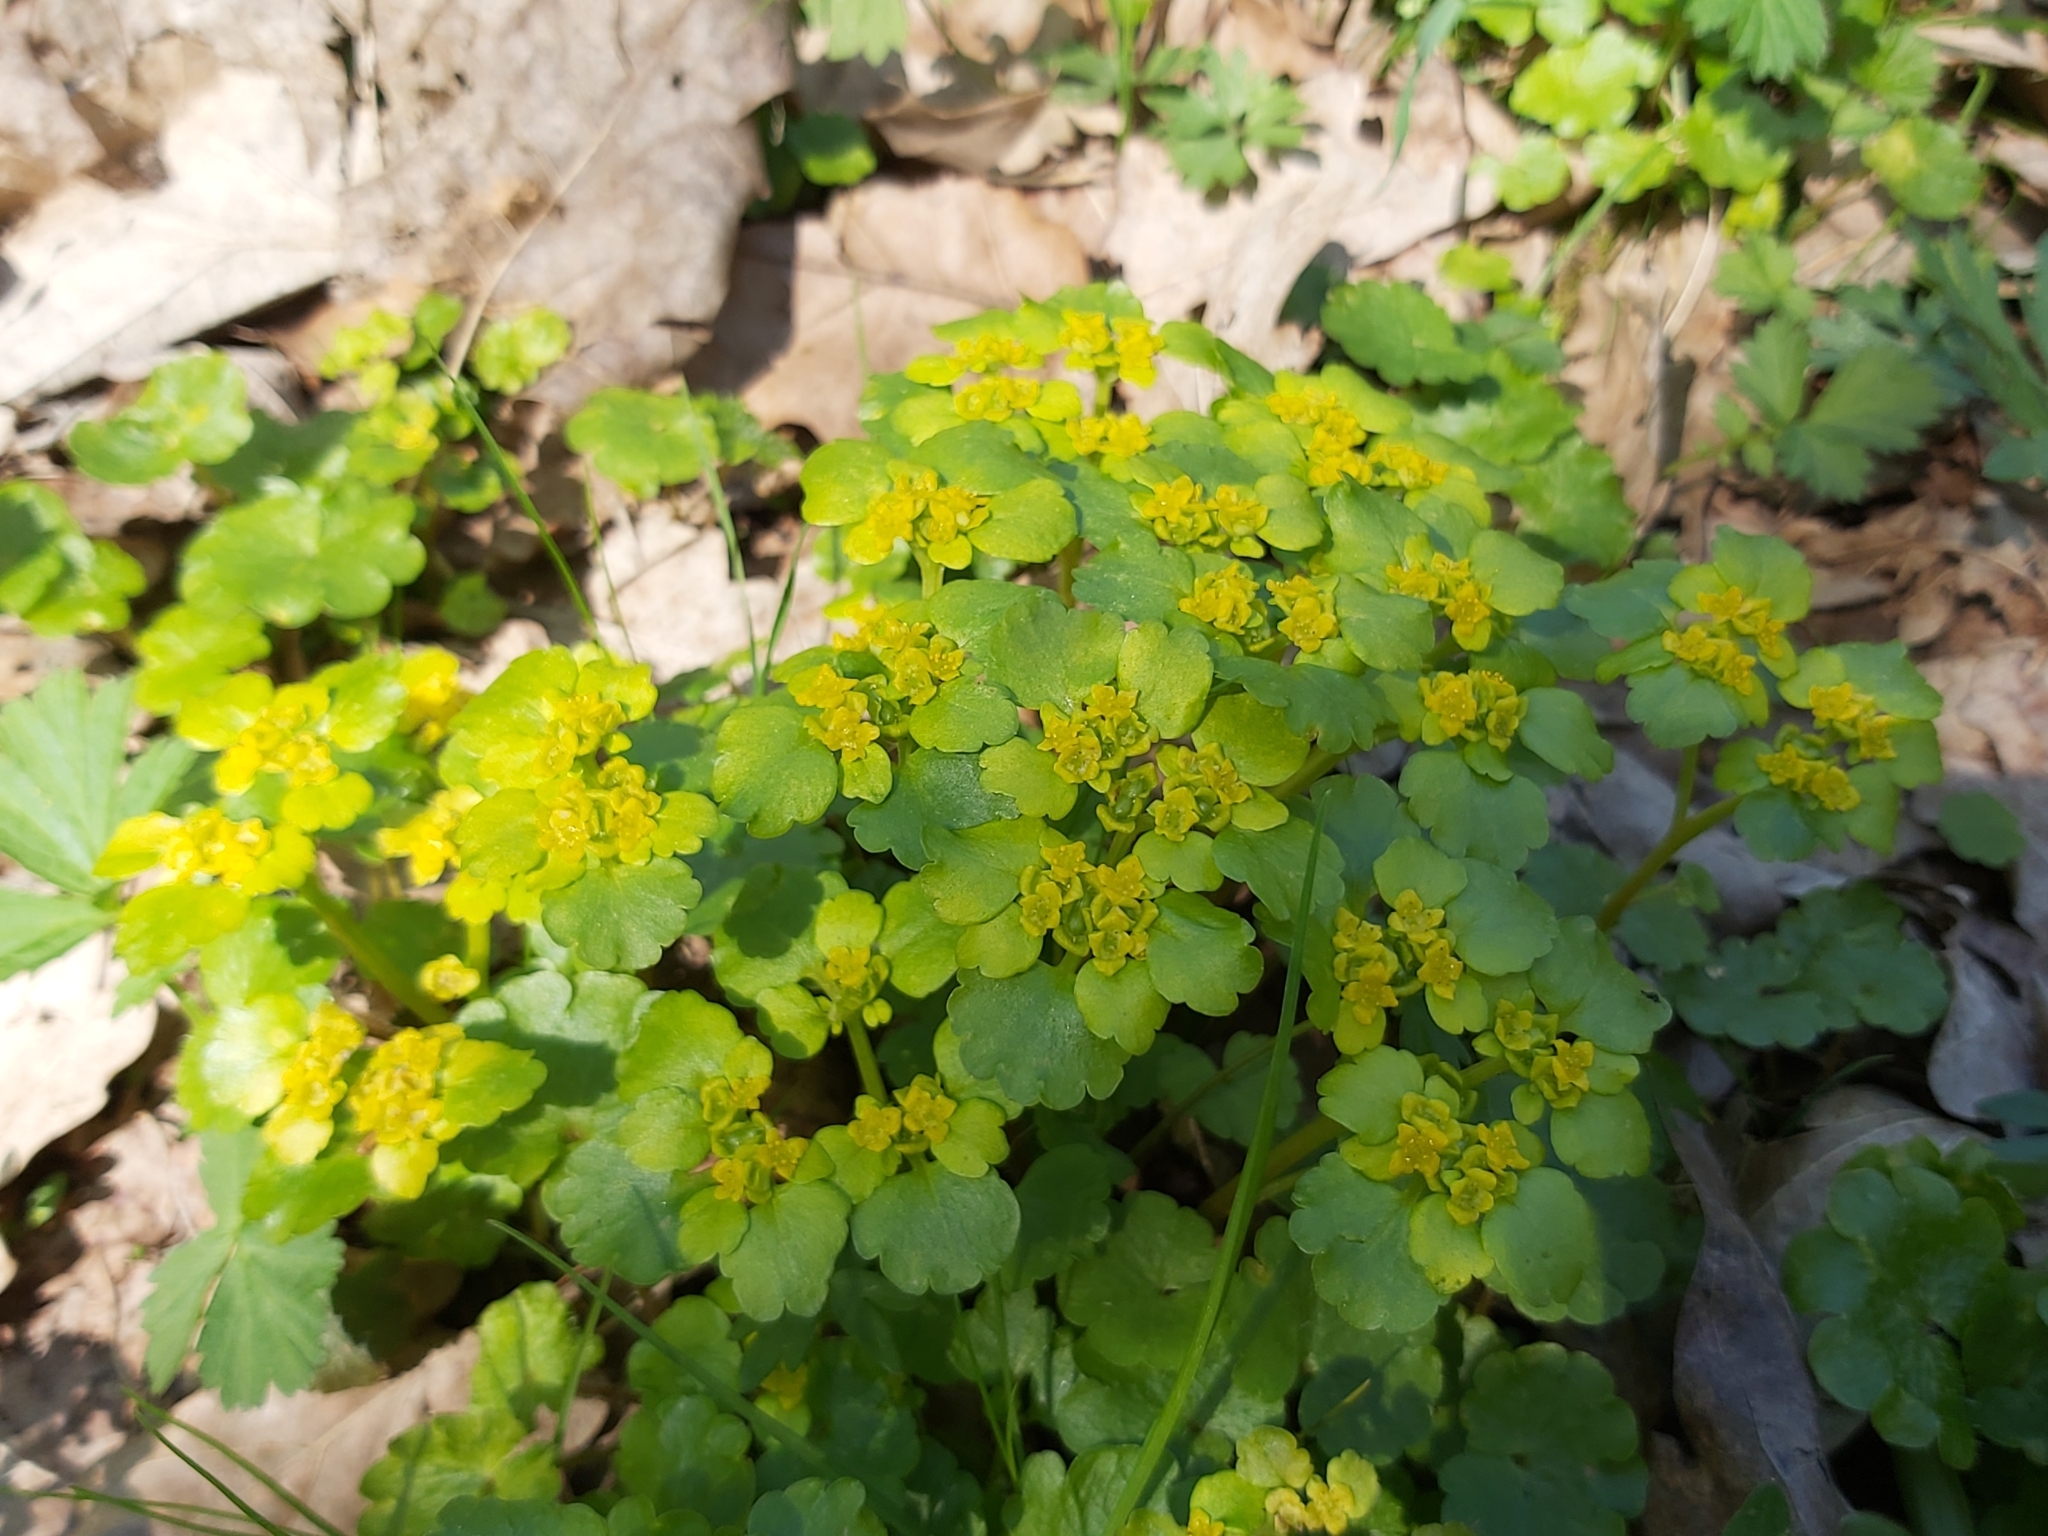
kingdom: Plantae
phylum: Tracheophyta
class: Magnoliopsida
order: Saxifragales
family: Saxifragaceae
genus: Chrysosplenium
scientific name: Chrysosplenium alternifolium
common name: Alternate-leaved golden-saxifrage
